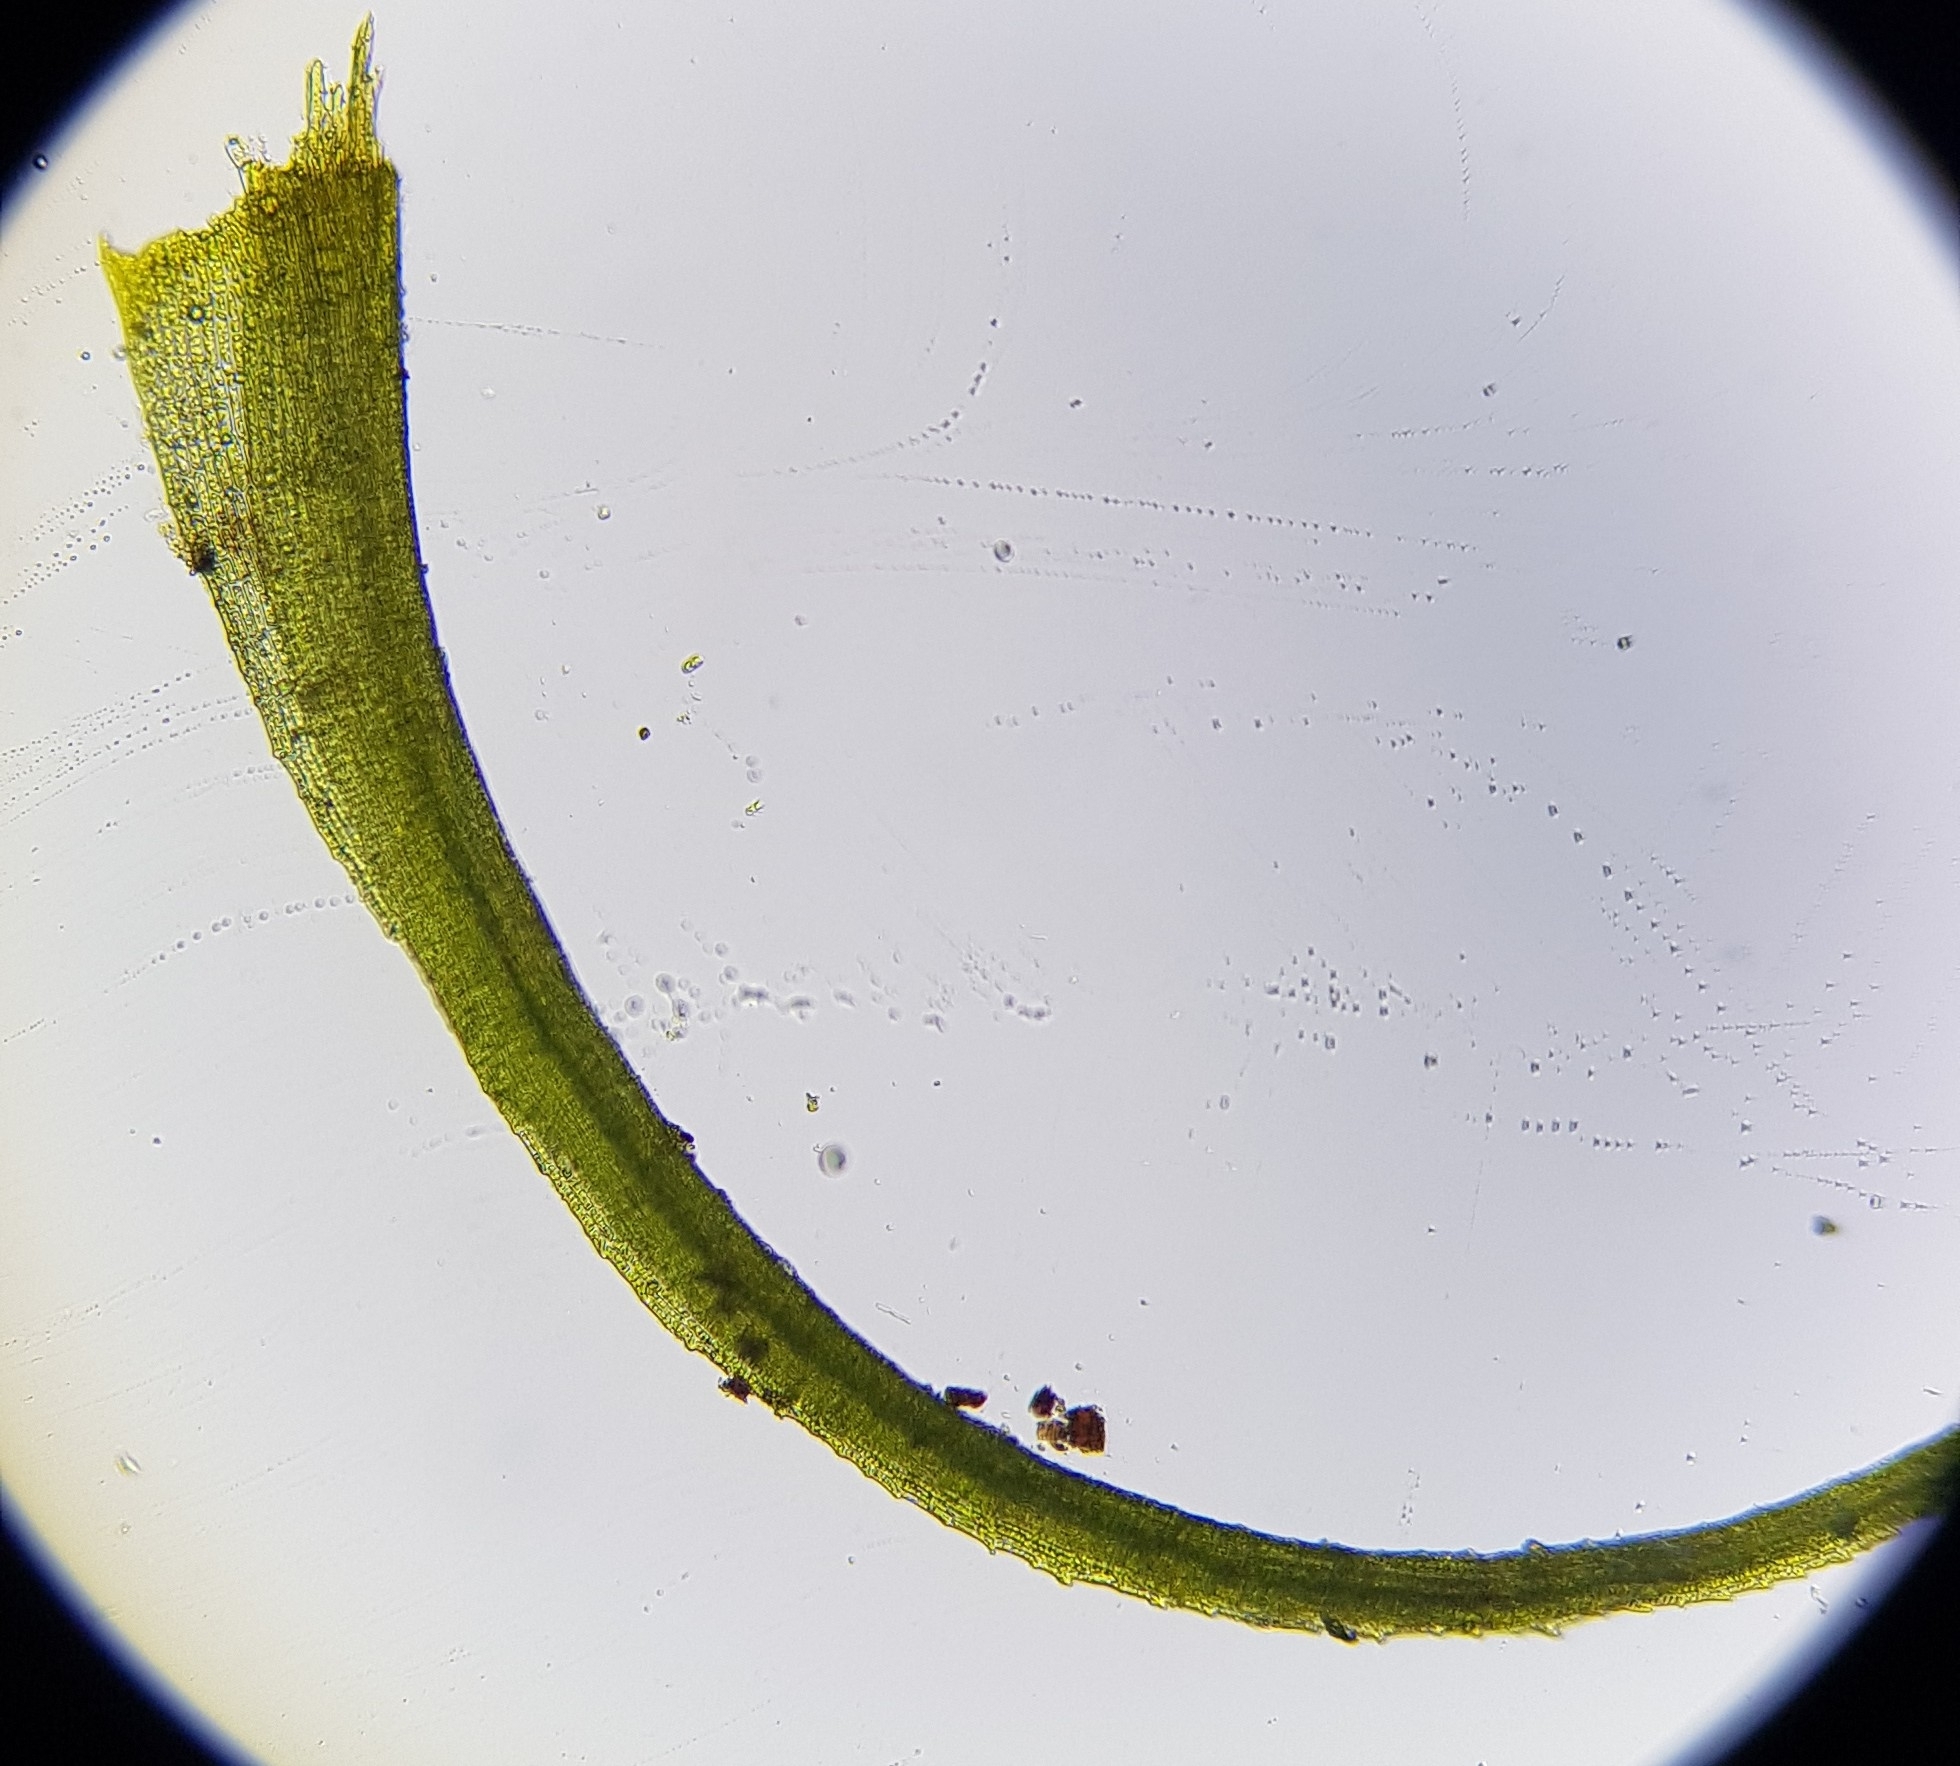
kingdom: Plantae
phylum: Bryophyta
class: Bryopsida
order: Dicranales
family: Dicranellaceae
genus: Dicranella
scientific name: Dicranella heteromalla
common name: Silky forklet moss
